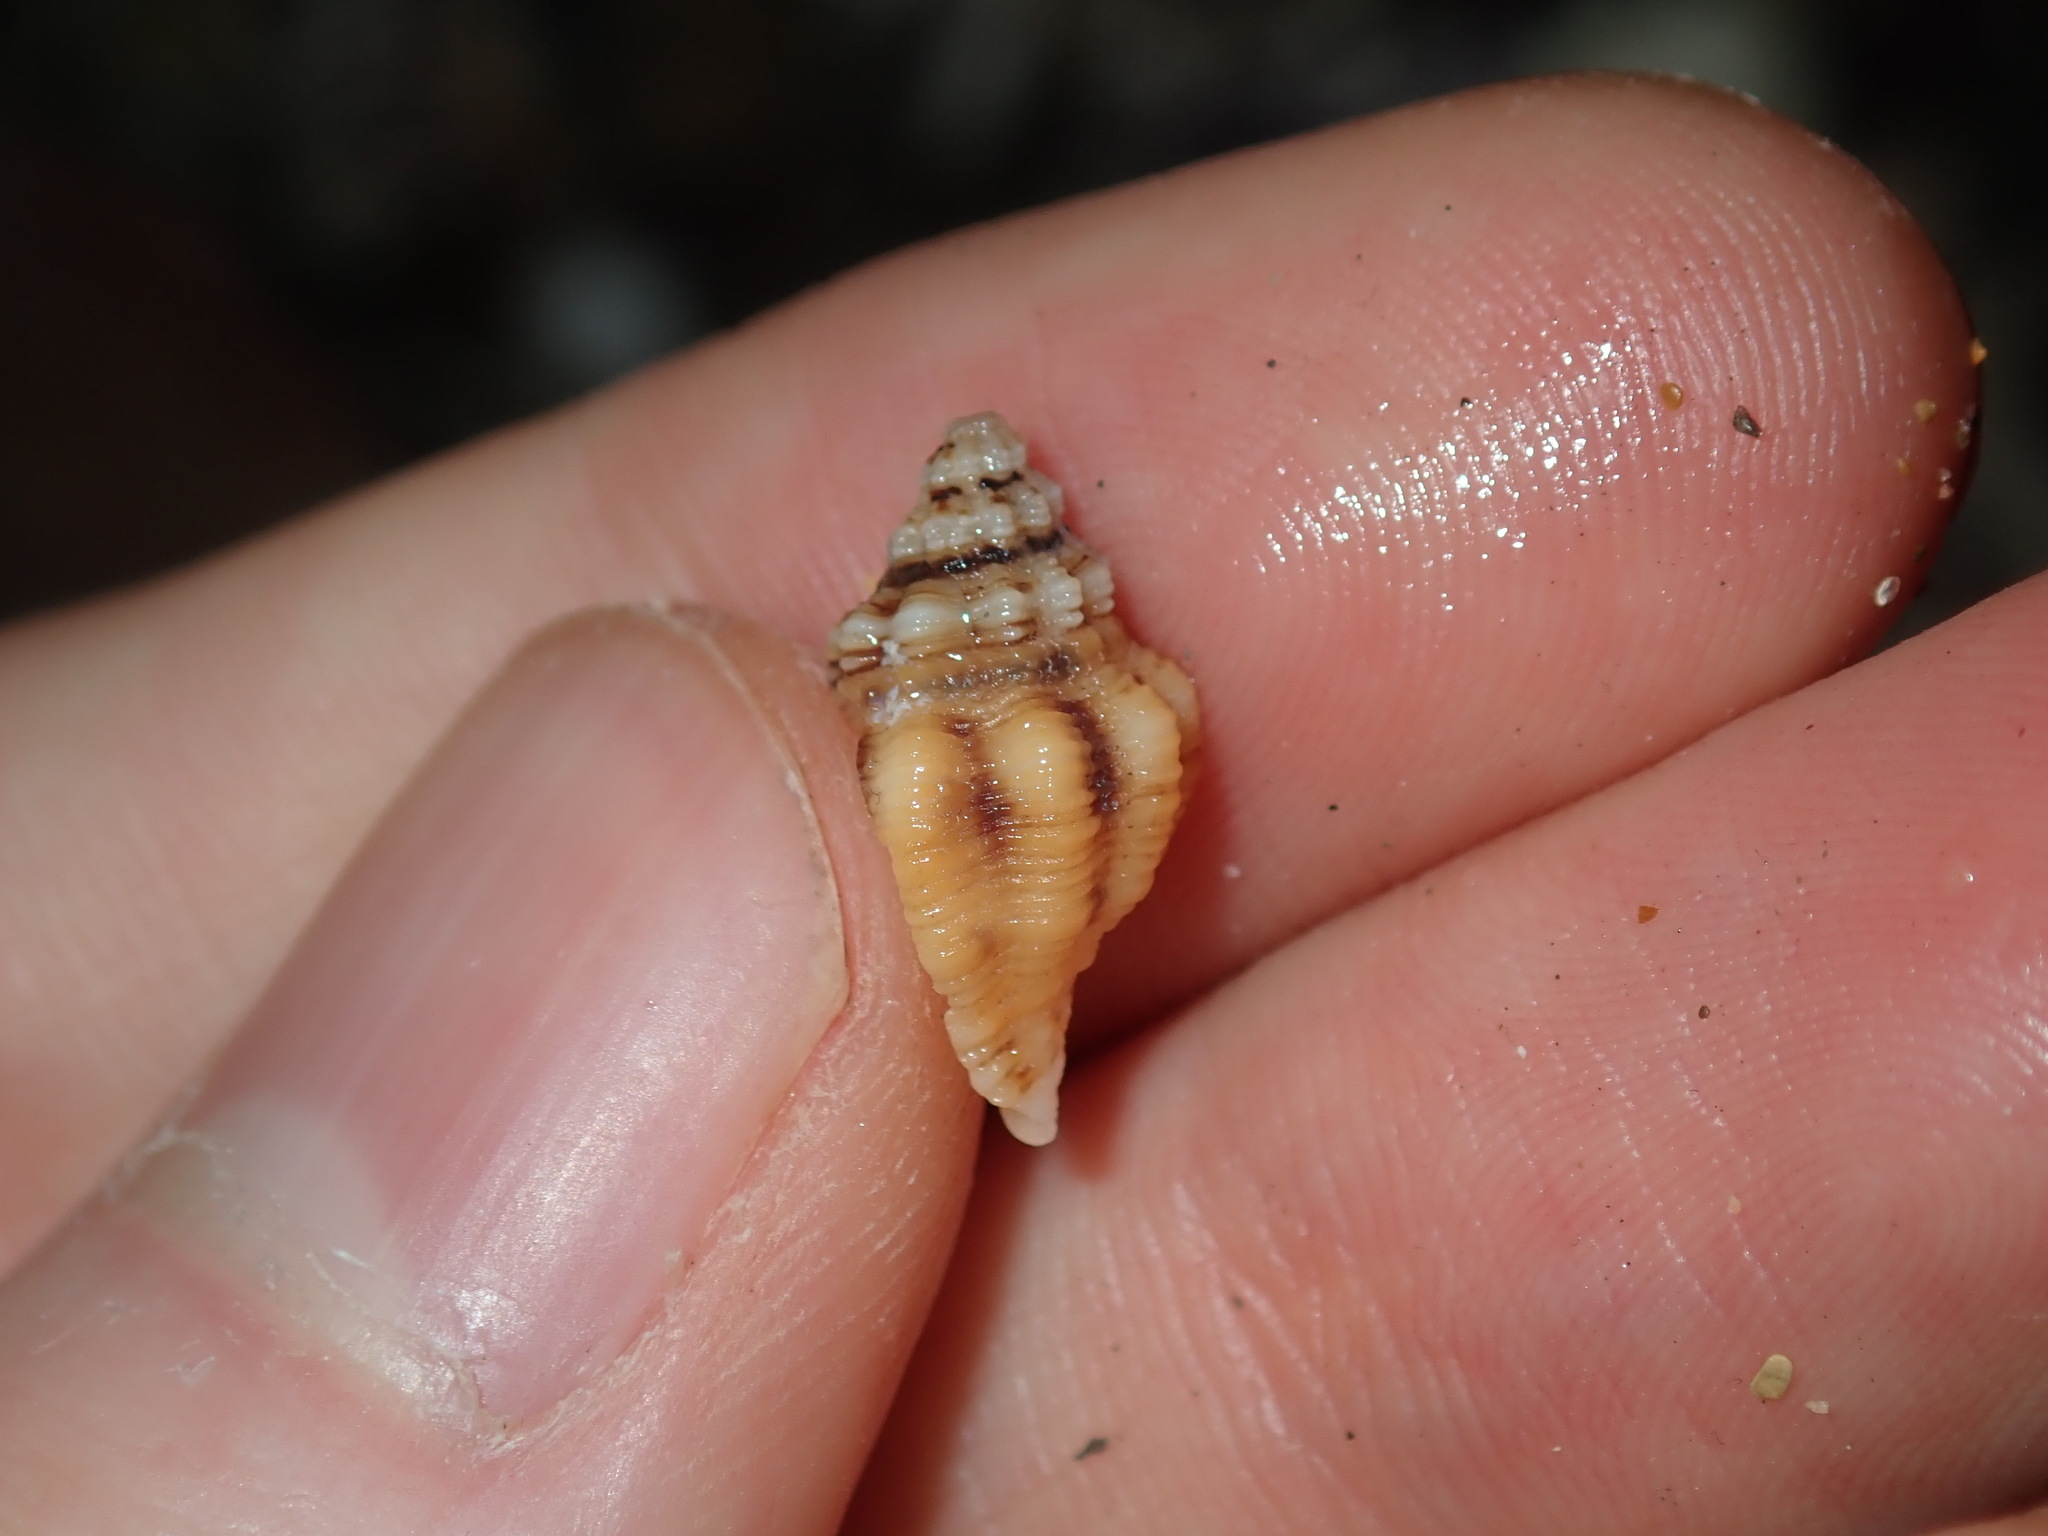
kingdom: Animalia
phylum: Mollusca
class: Gastropoda
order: Neogastropoda
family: Muricidae
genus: Cronia
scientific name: Cronia aurantiaca
